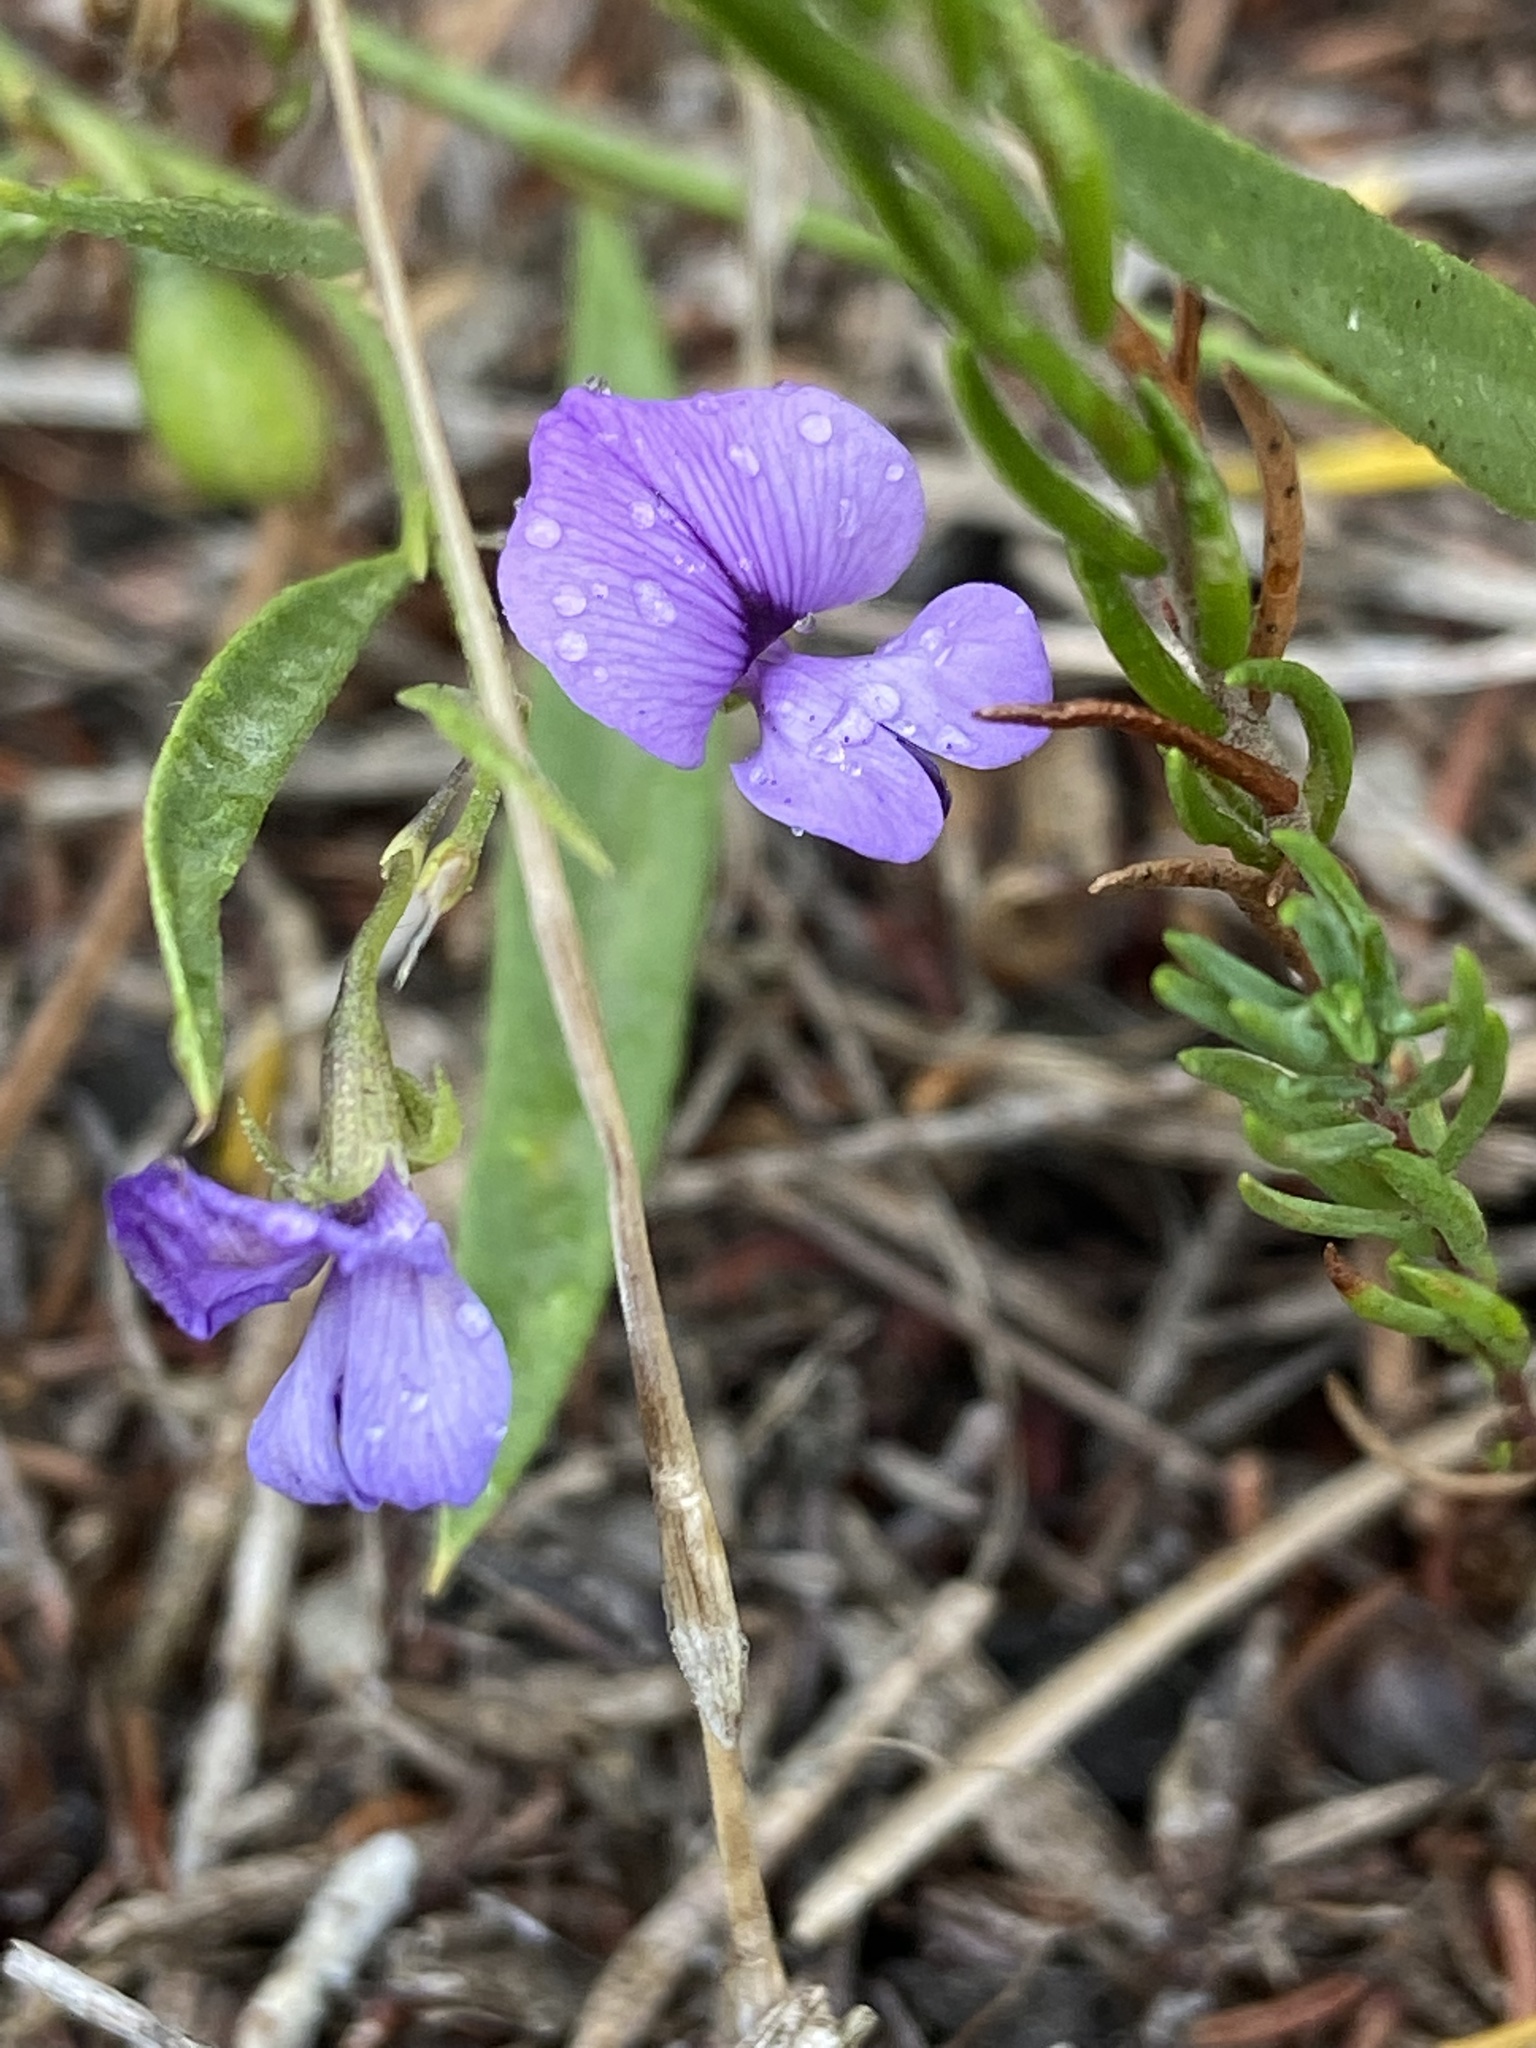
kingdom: Plantae
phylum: Tracheophyta
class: Magnoliopsida
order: Fabales
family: Fabaceae
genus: Psoralea
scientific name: Psoralea laxa
